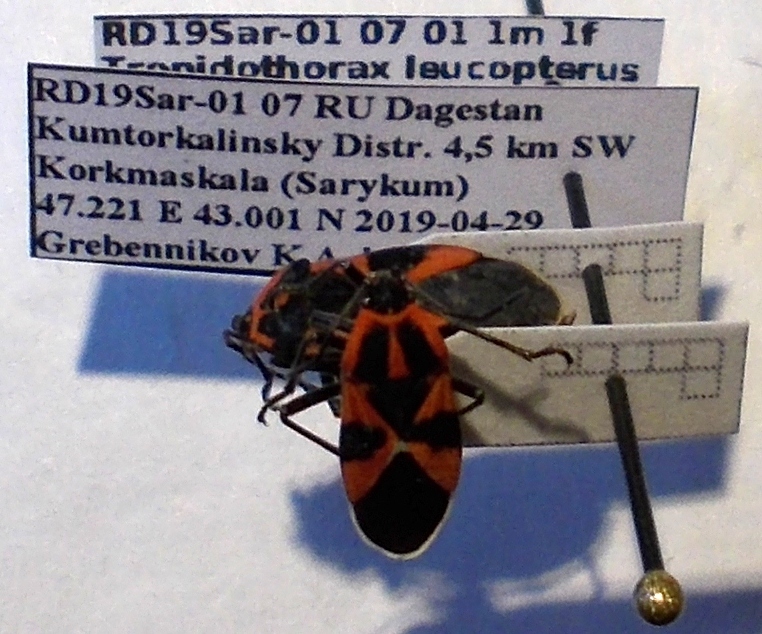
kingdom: Animalia
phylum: Arthropoda
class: Insecta
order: Hemiptera
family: Lygaeidae
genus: Tropidothorax
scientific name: Tropidothorax leucopterus
